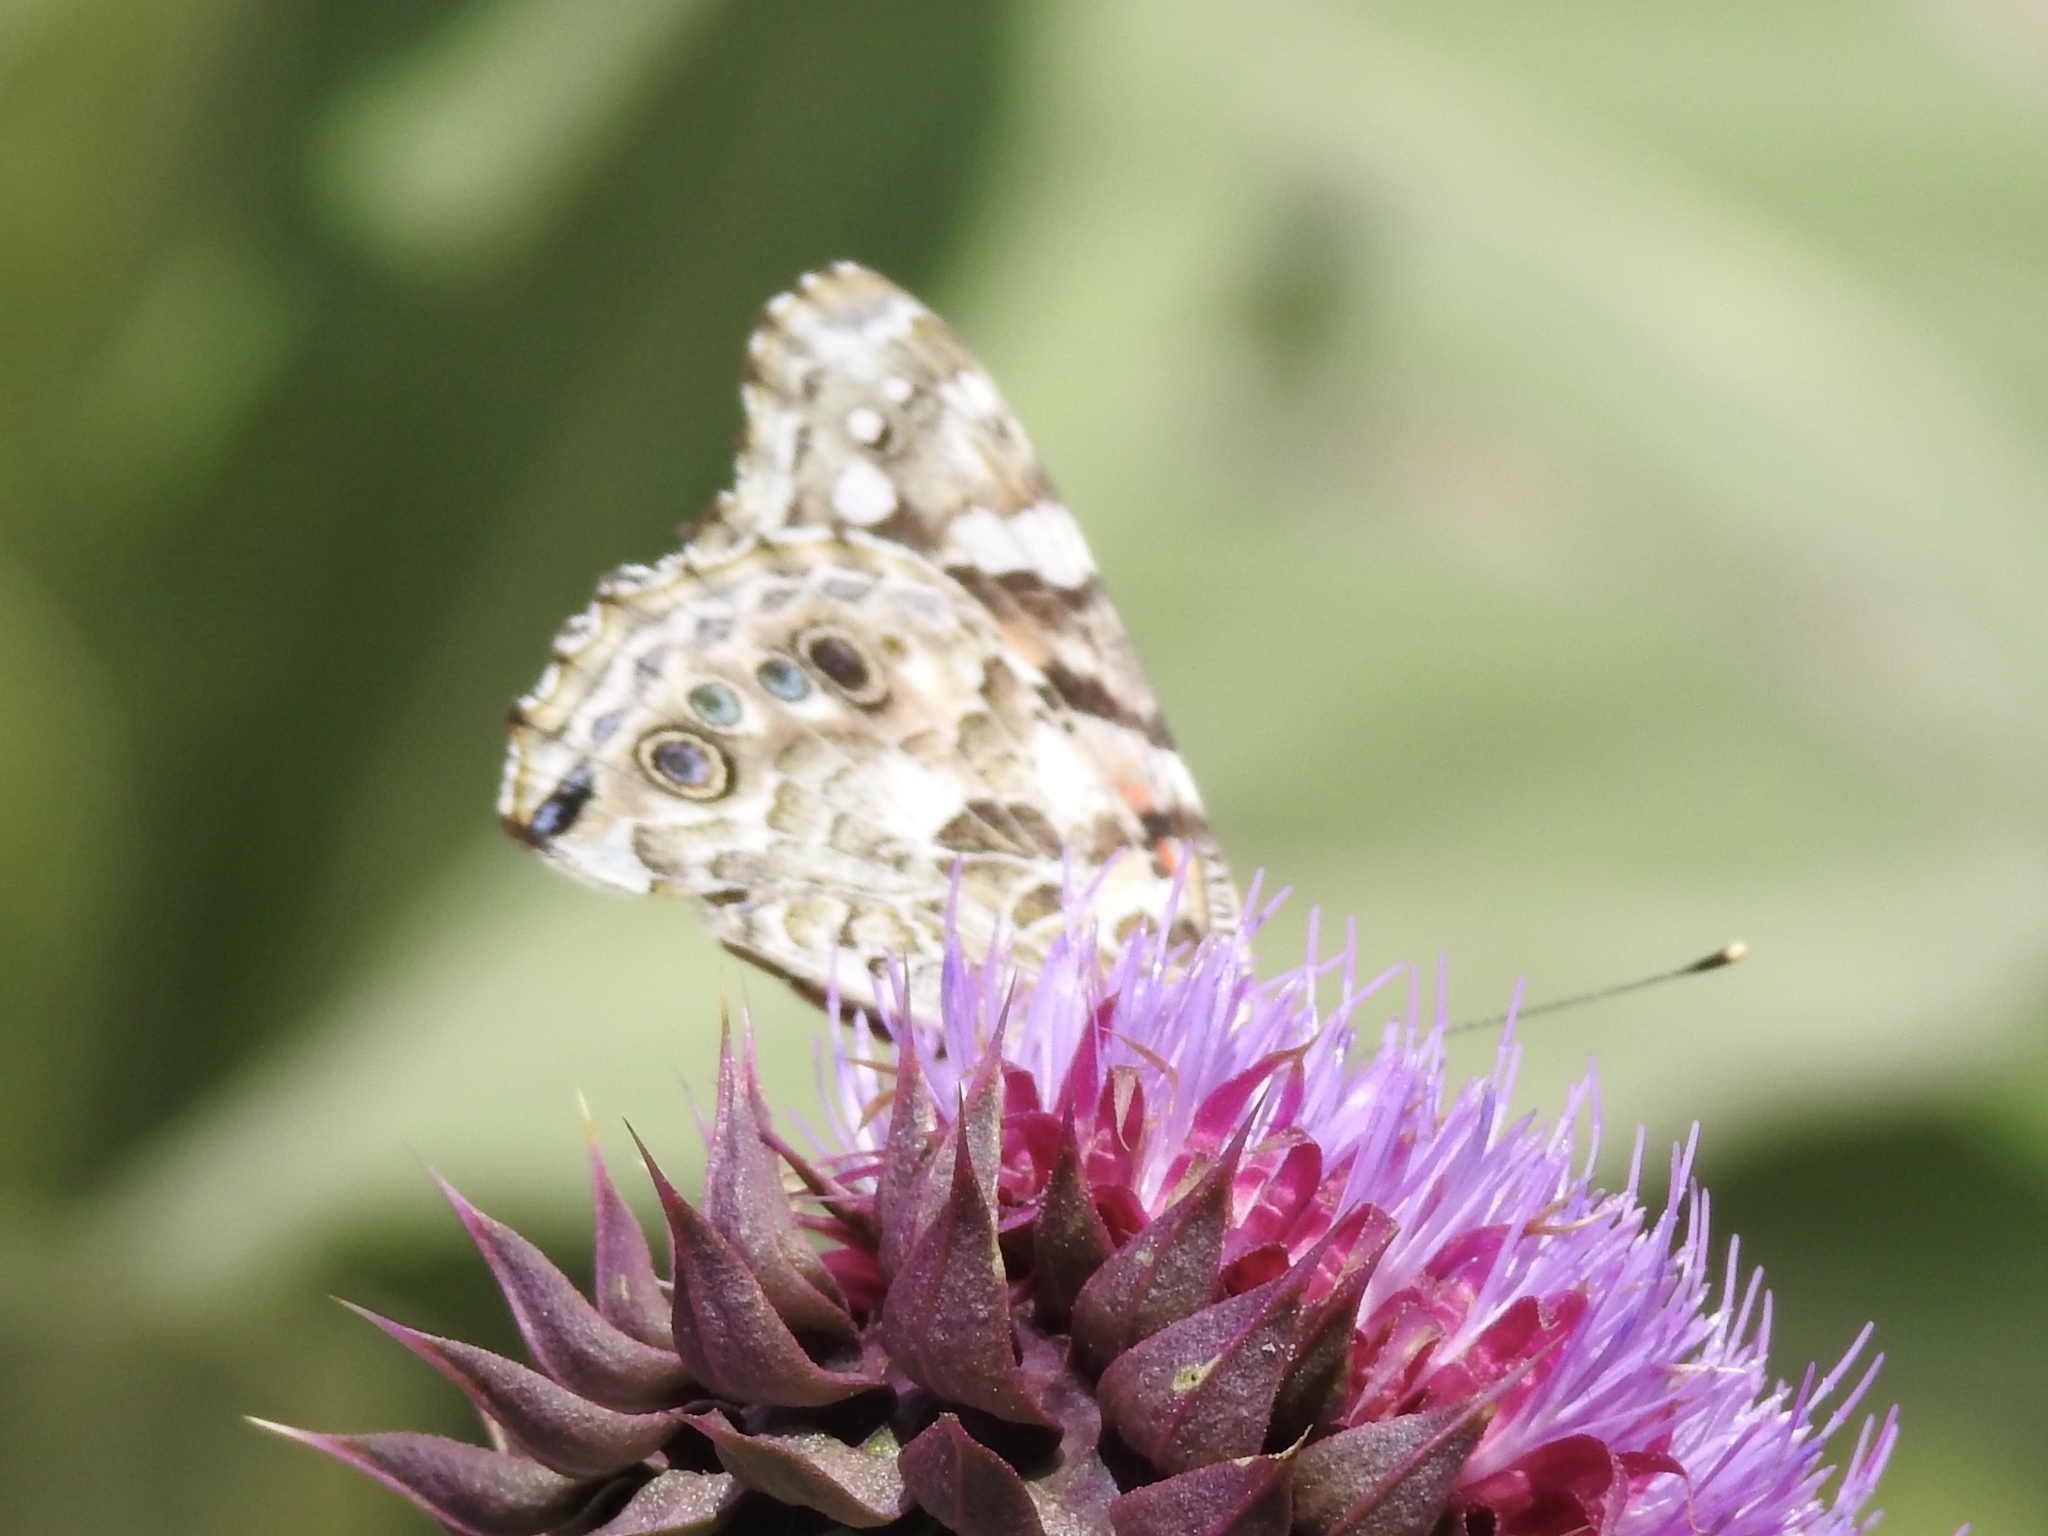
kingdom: Animalia
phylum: Arthropoda
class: Insecta
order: Lepidoptera
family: Nymphalidae
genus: Vanessa
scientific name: Vanessa cardui
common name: Painted lady
